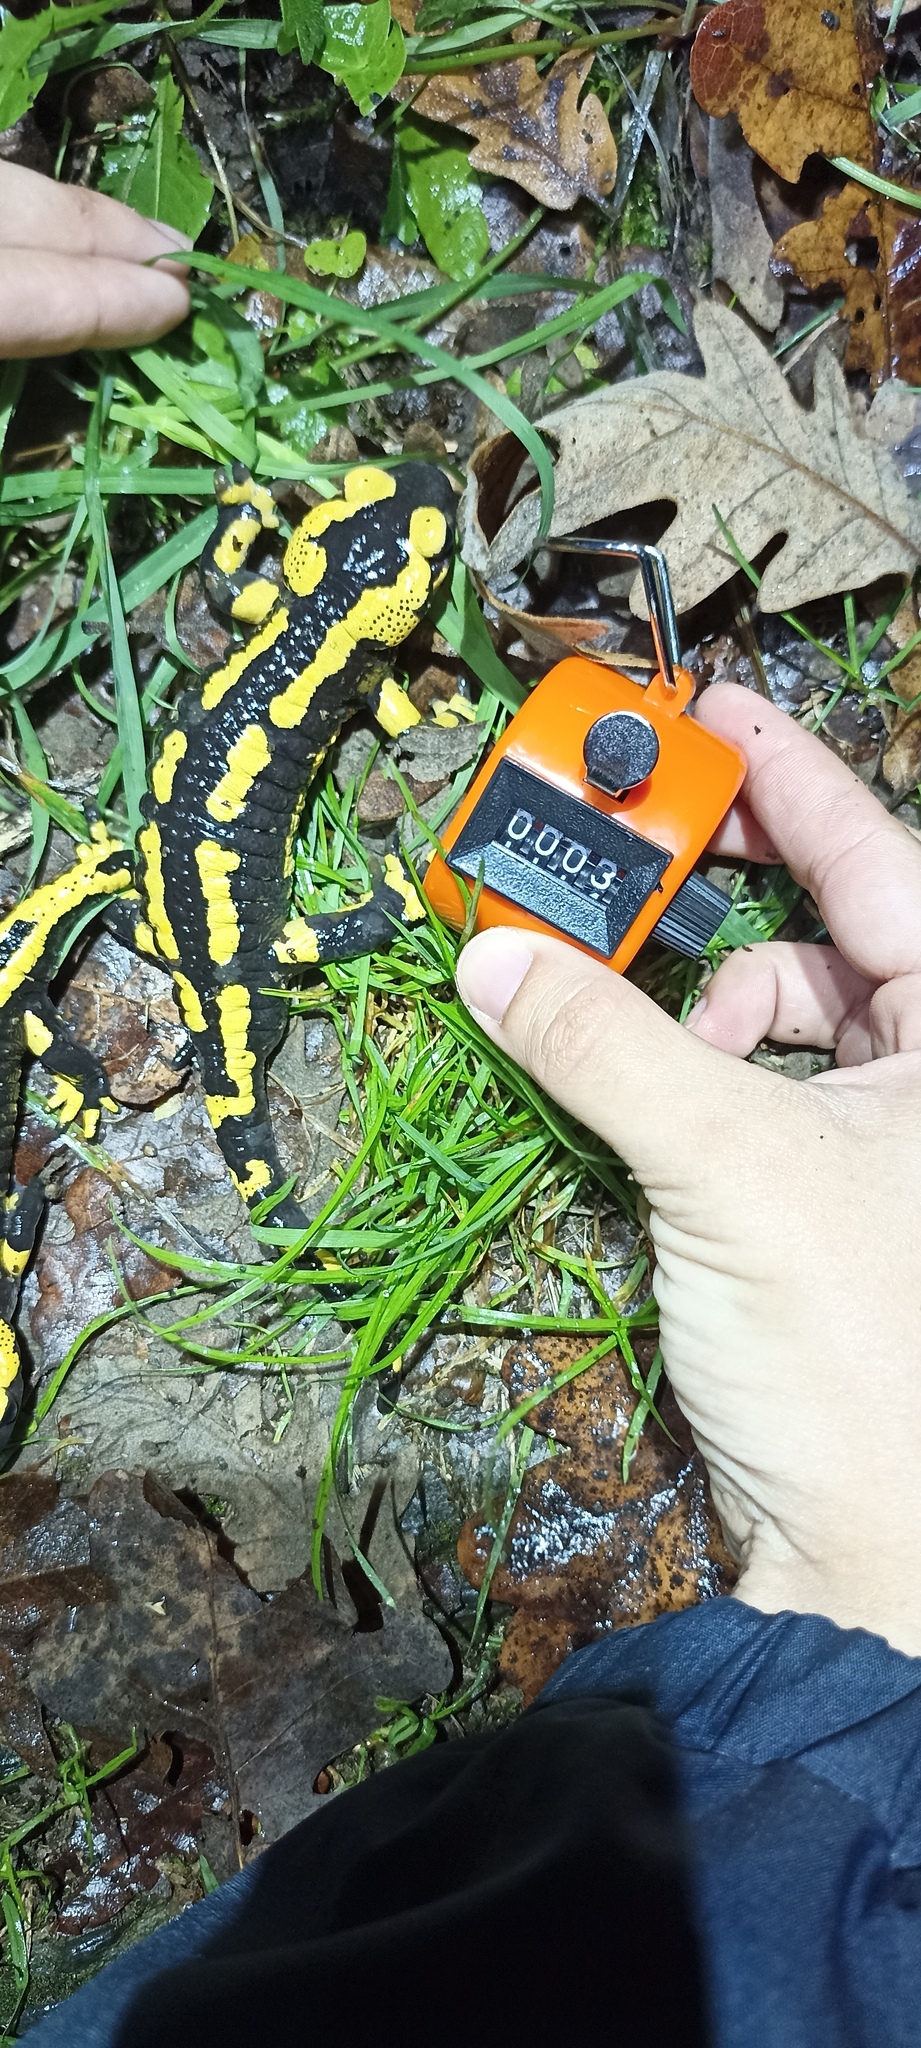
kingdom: Animalia
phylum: Chordata
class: Amphibia
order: Caudata
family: Salamandridae
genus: Salamandra
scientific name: Salamandra salamandra
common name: Fire salamander
